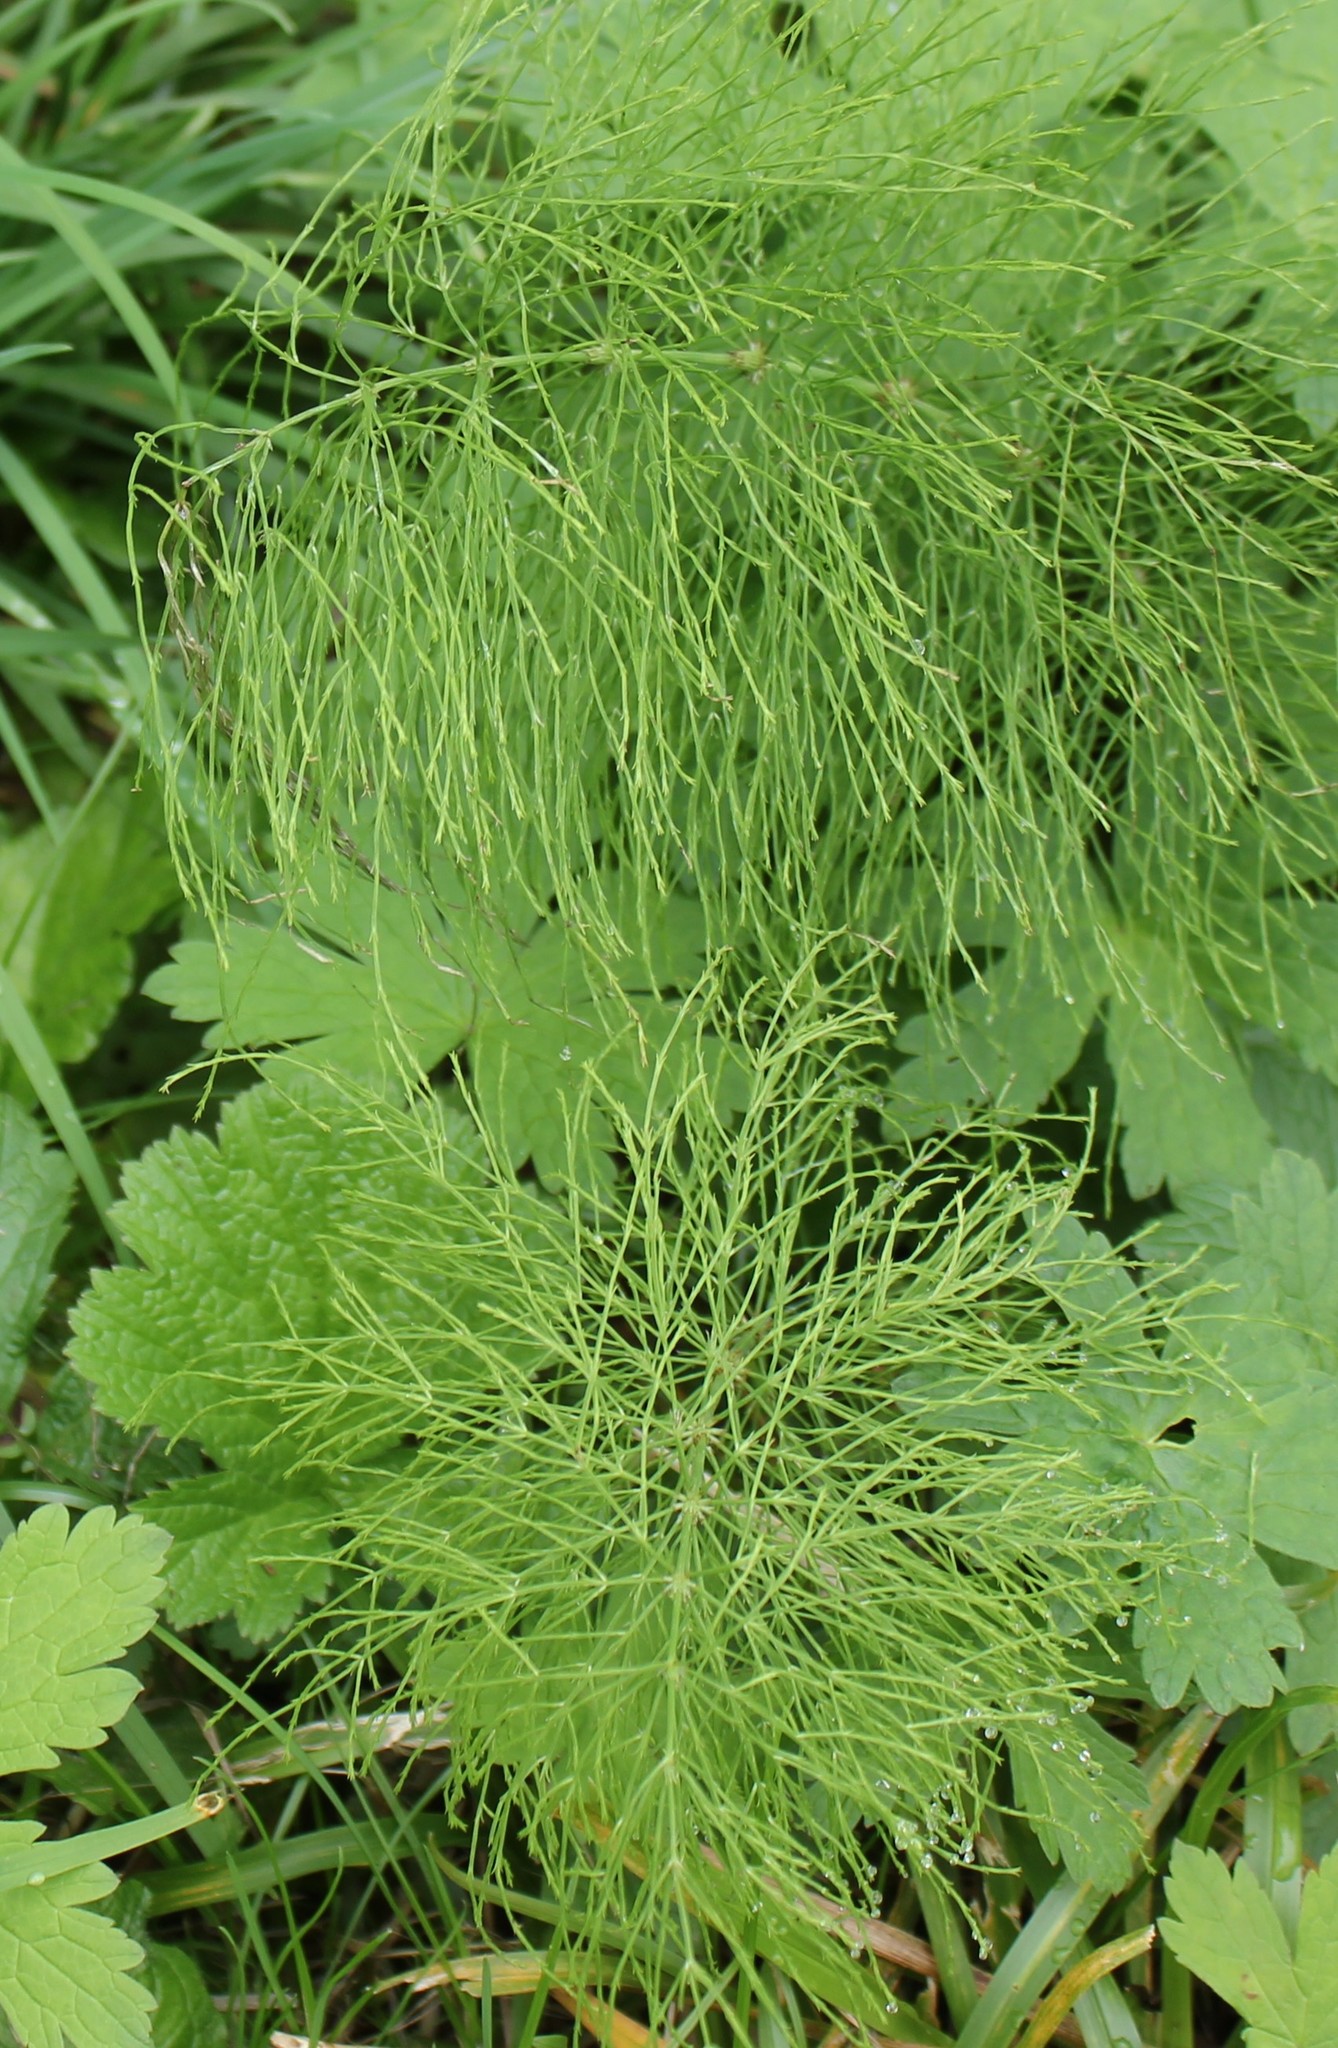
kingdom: Plantae
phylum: Tracheophyta
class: Polypodiopsida
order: Equisetales
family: Equisetaceae
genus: Equisetum
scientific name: Equisetum sylvaticum
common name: Wood horsetail
